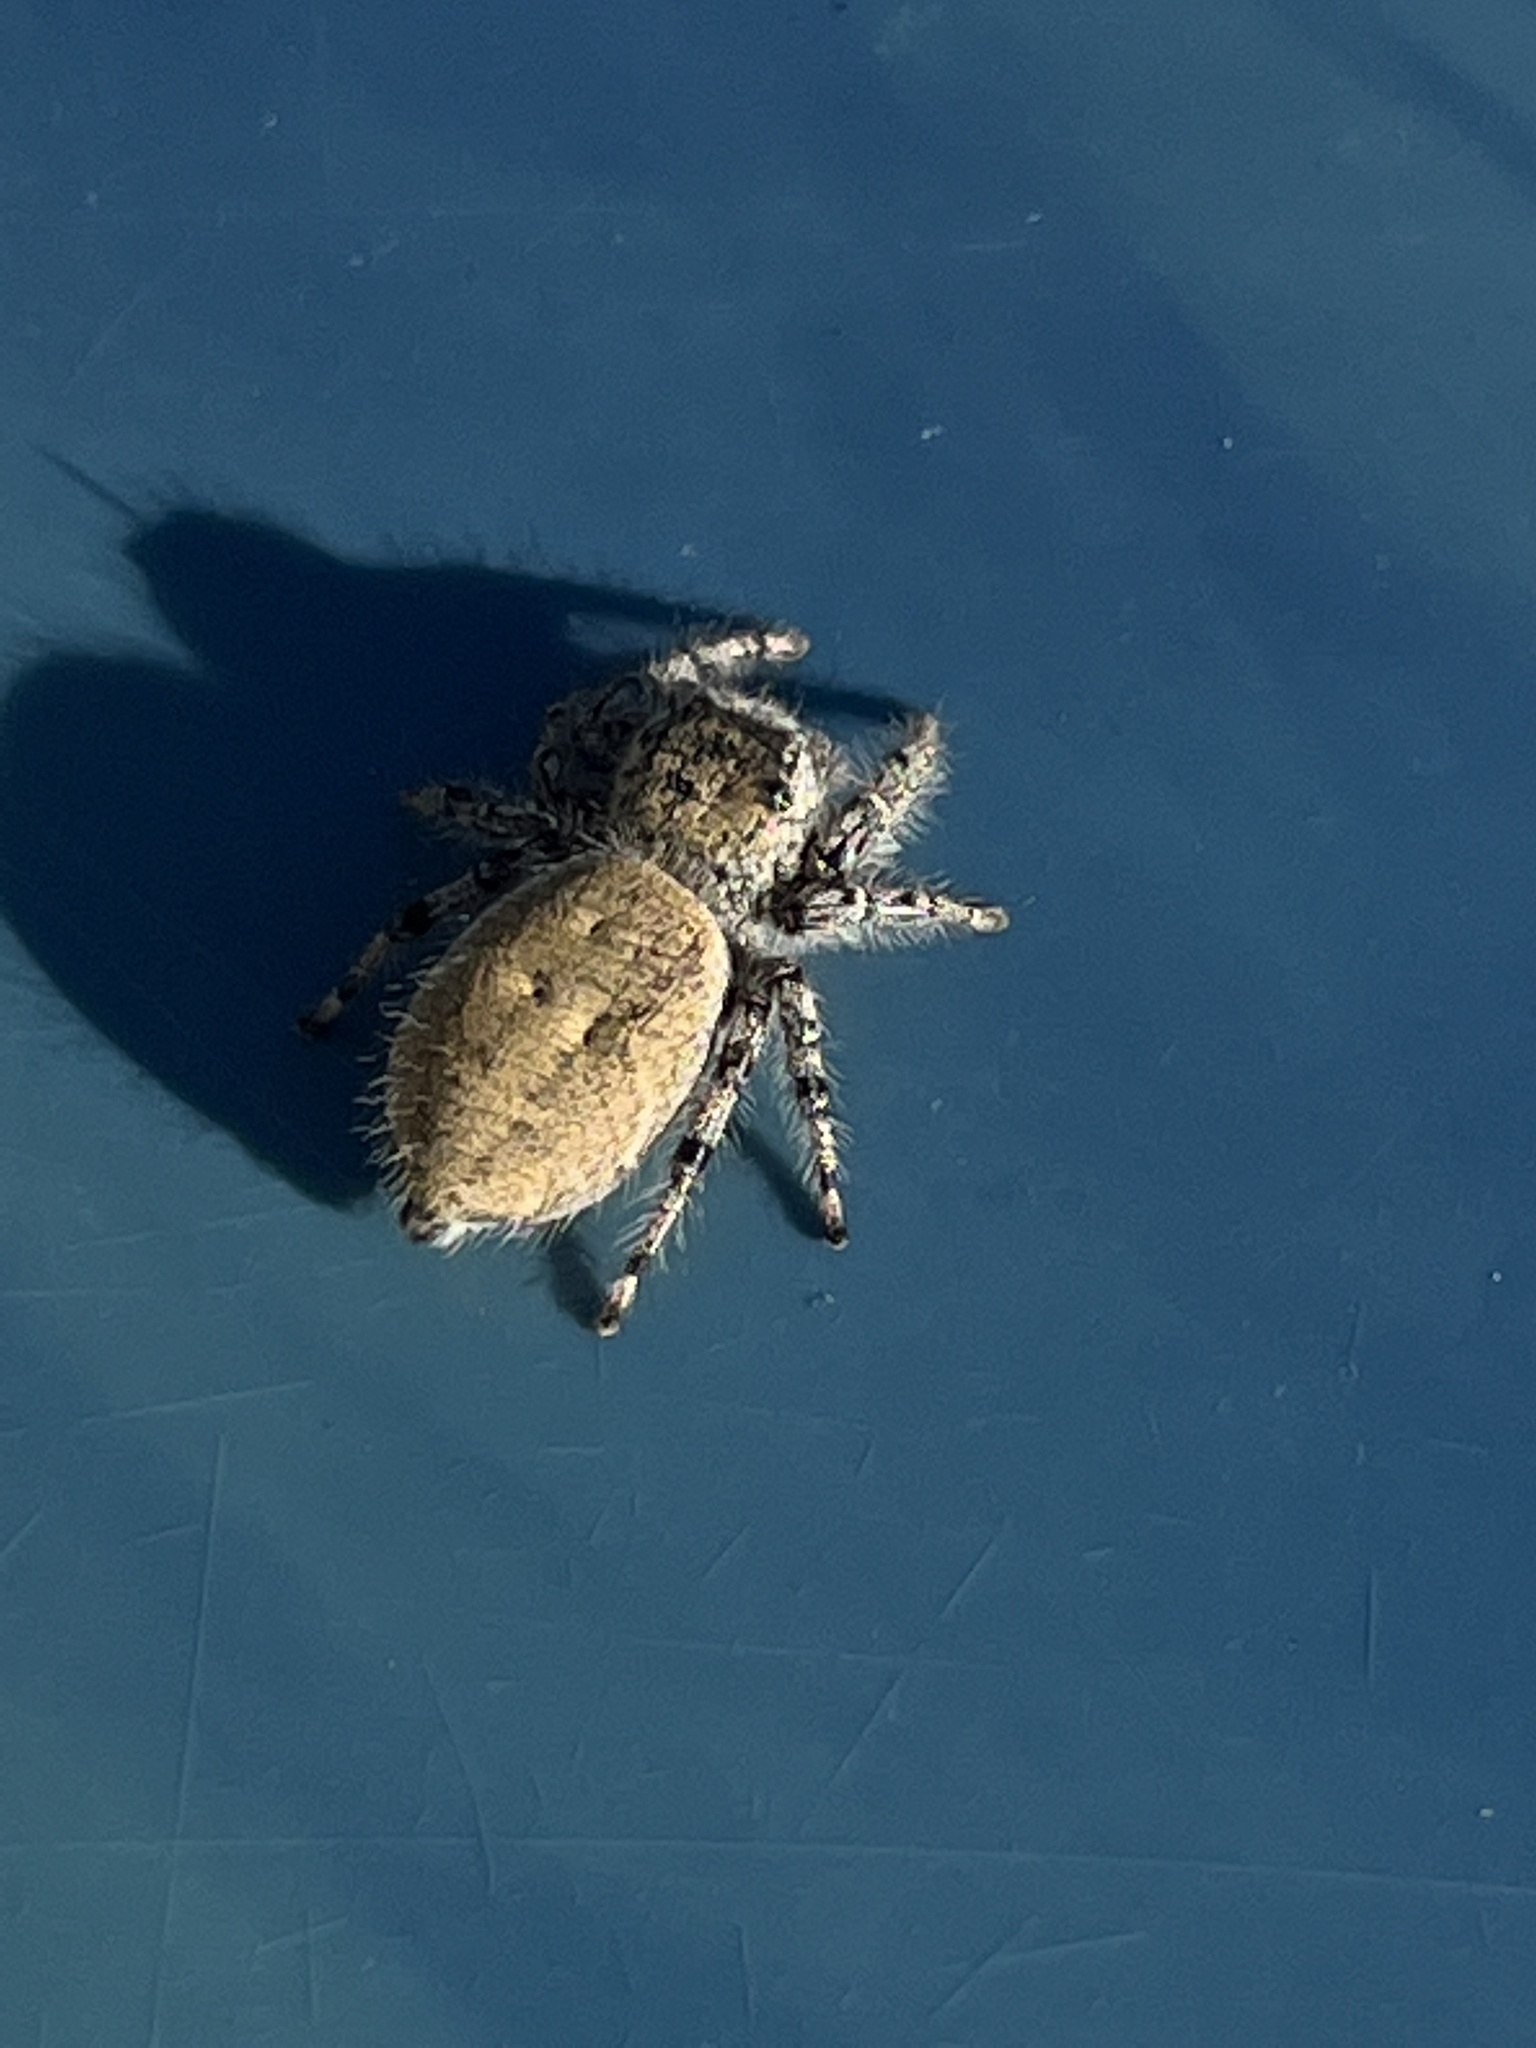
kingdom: Animalia
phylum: Arthropoda
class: Arachnida
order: Araneae
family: Salticidae
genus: Phidippus
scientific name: Phidippus adumbratus
